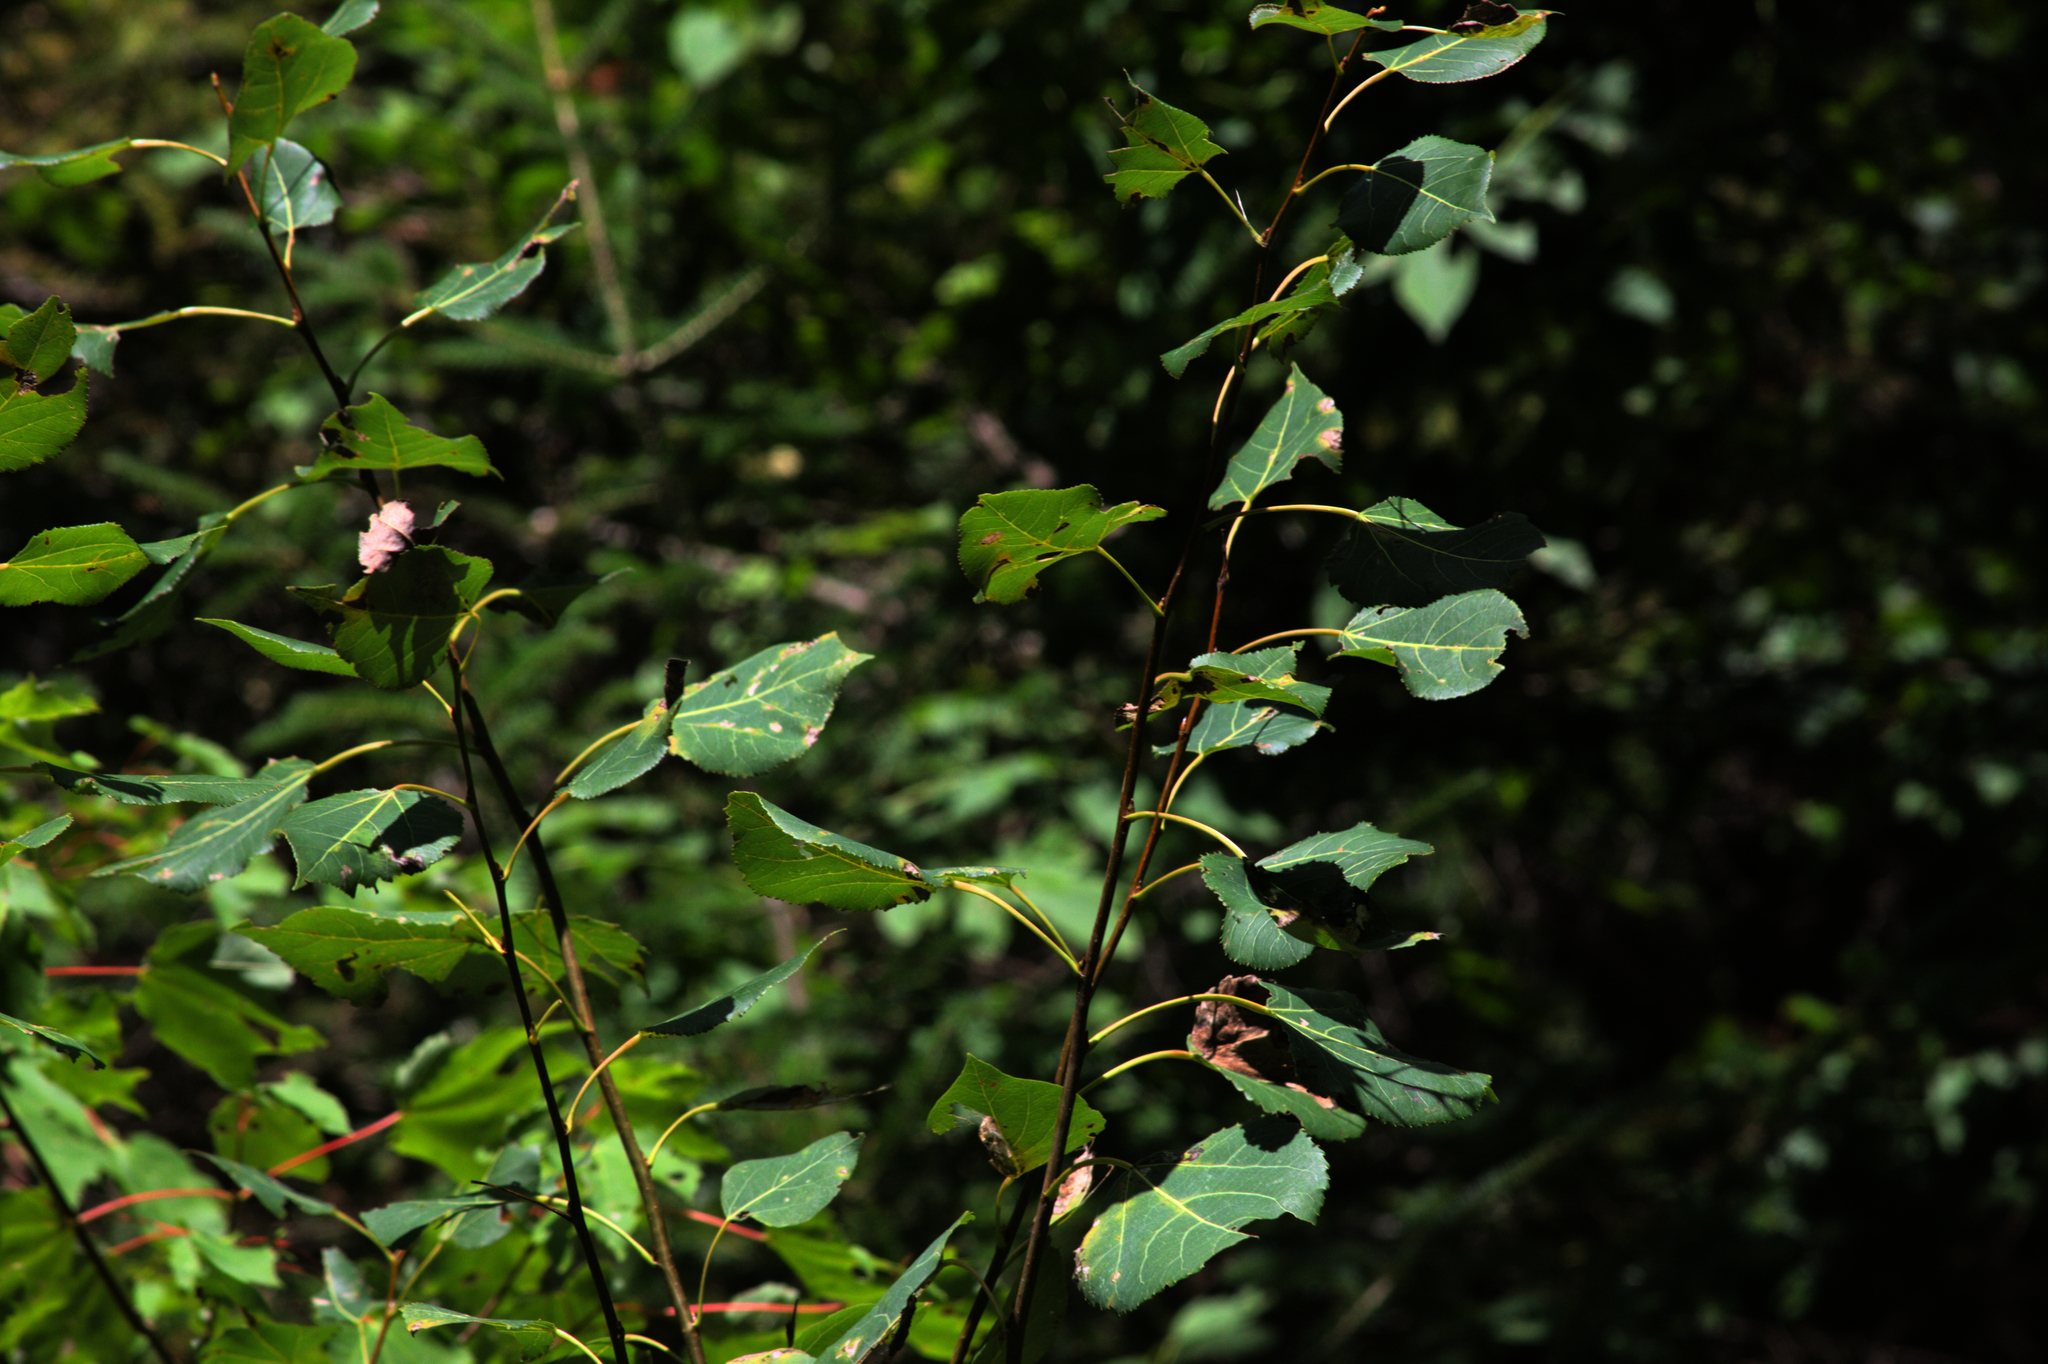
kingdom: Plantae
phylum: Tracheophyta
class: Magnoliopsida
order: Malpighiales
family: Salicaceae
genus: Populus
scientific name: Populus tremuloides
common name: Quaking aspen
